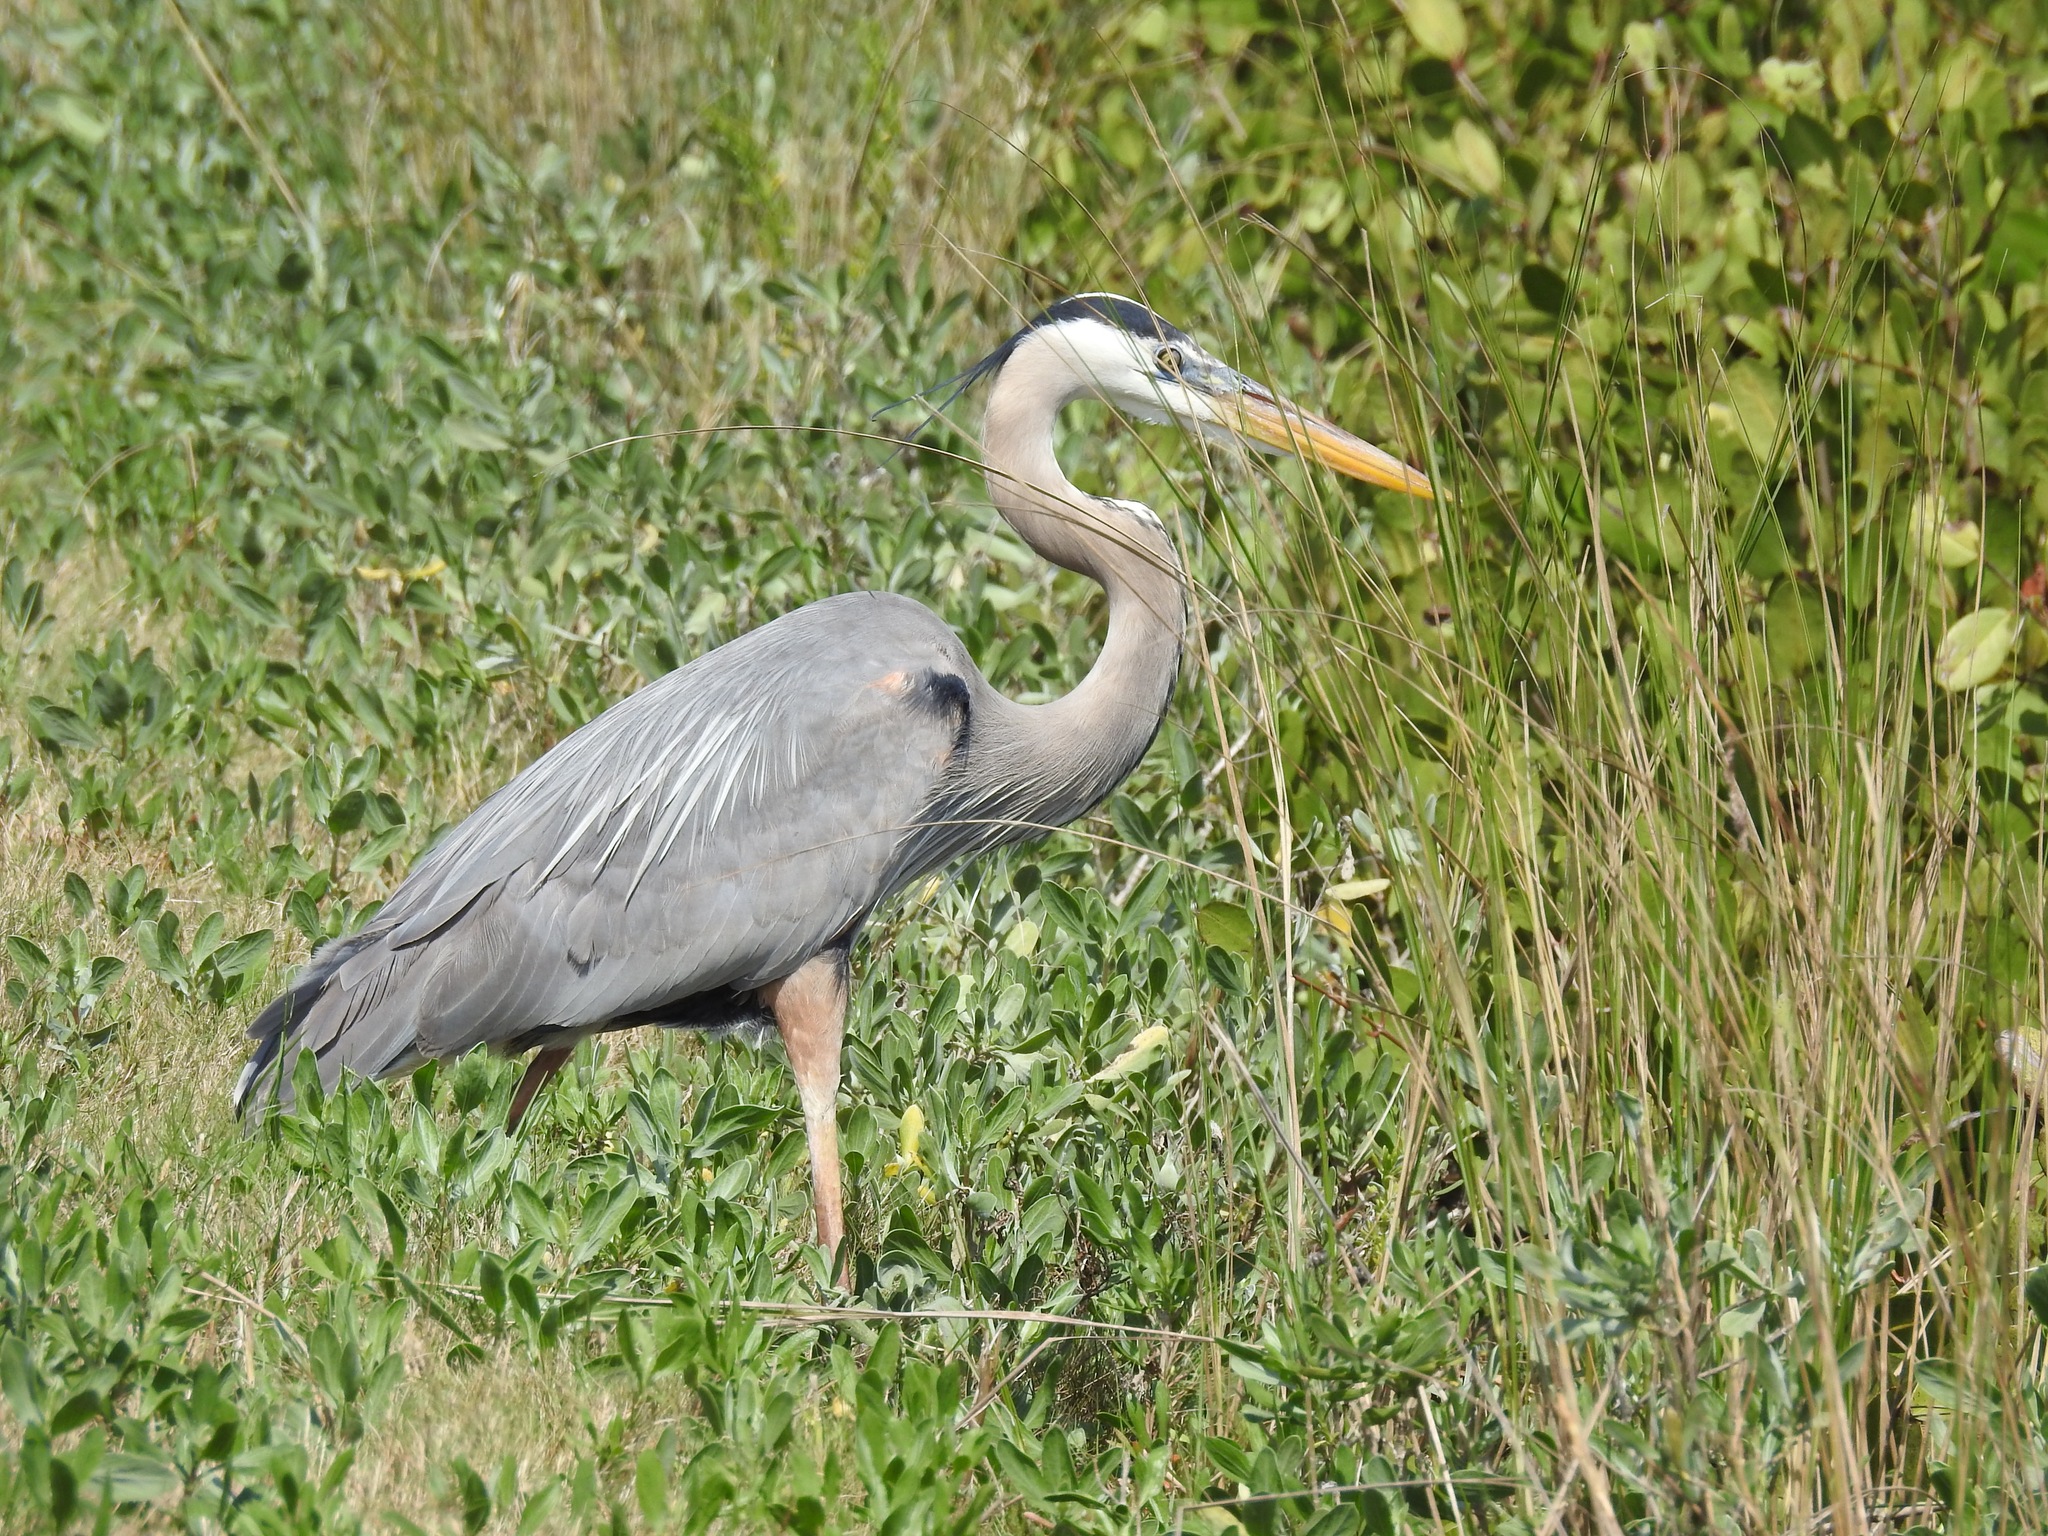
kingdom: Animalia
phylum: Chordata
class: Aves
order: Pelecaniformes
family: Ardeidae
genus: Ardea
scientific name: Ardea herodias
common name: Great blue heron
